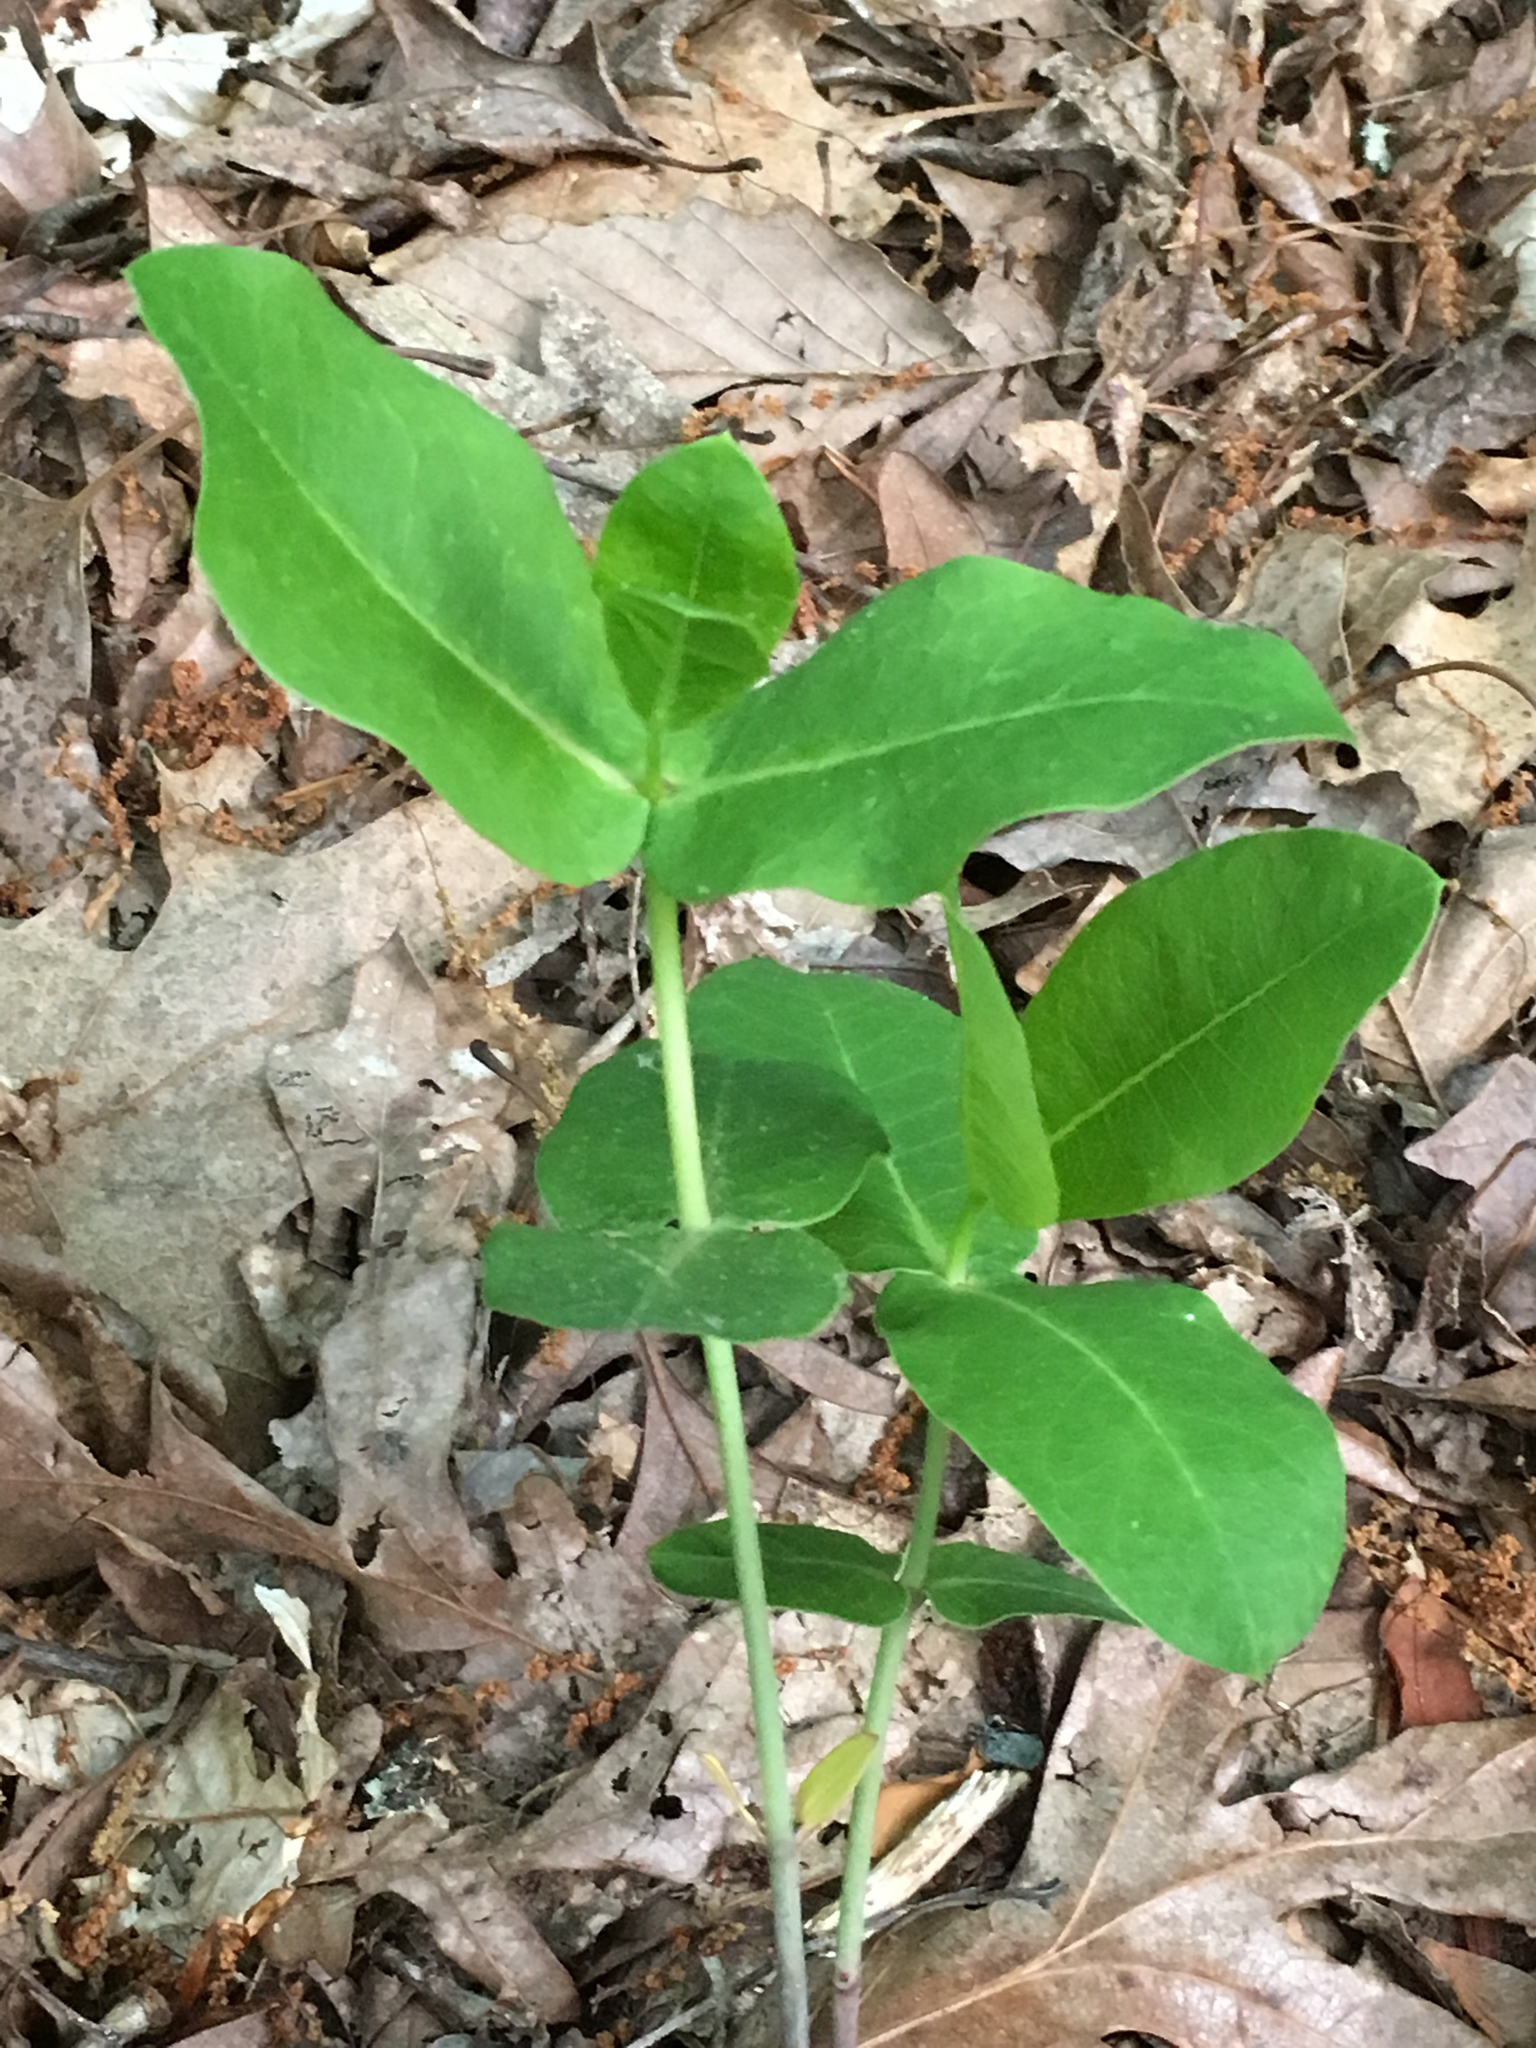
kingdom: Plantae
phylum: Tracheophyta
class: Magnoliopsida
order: Gentianales
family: Apocynaceae
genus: Asclepias
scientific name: Asclepias amplexicaulis
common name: Blunt-leaf milkweed
